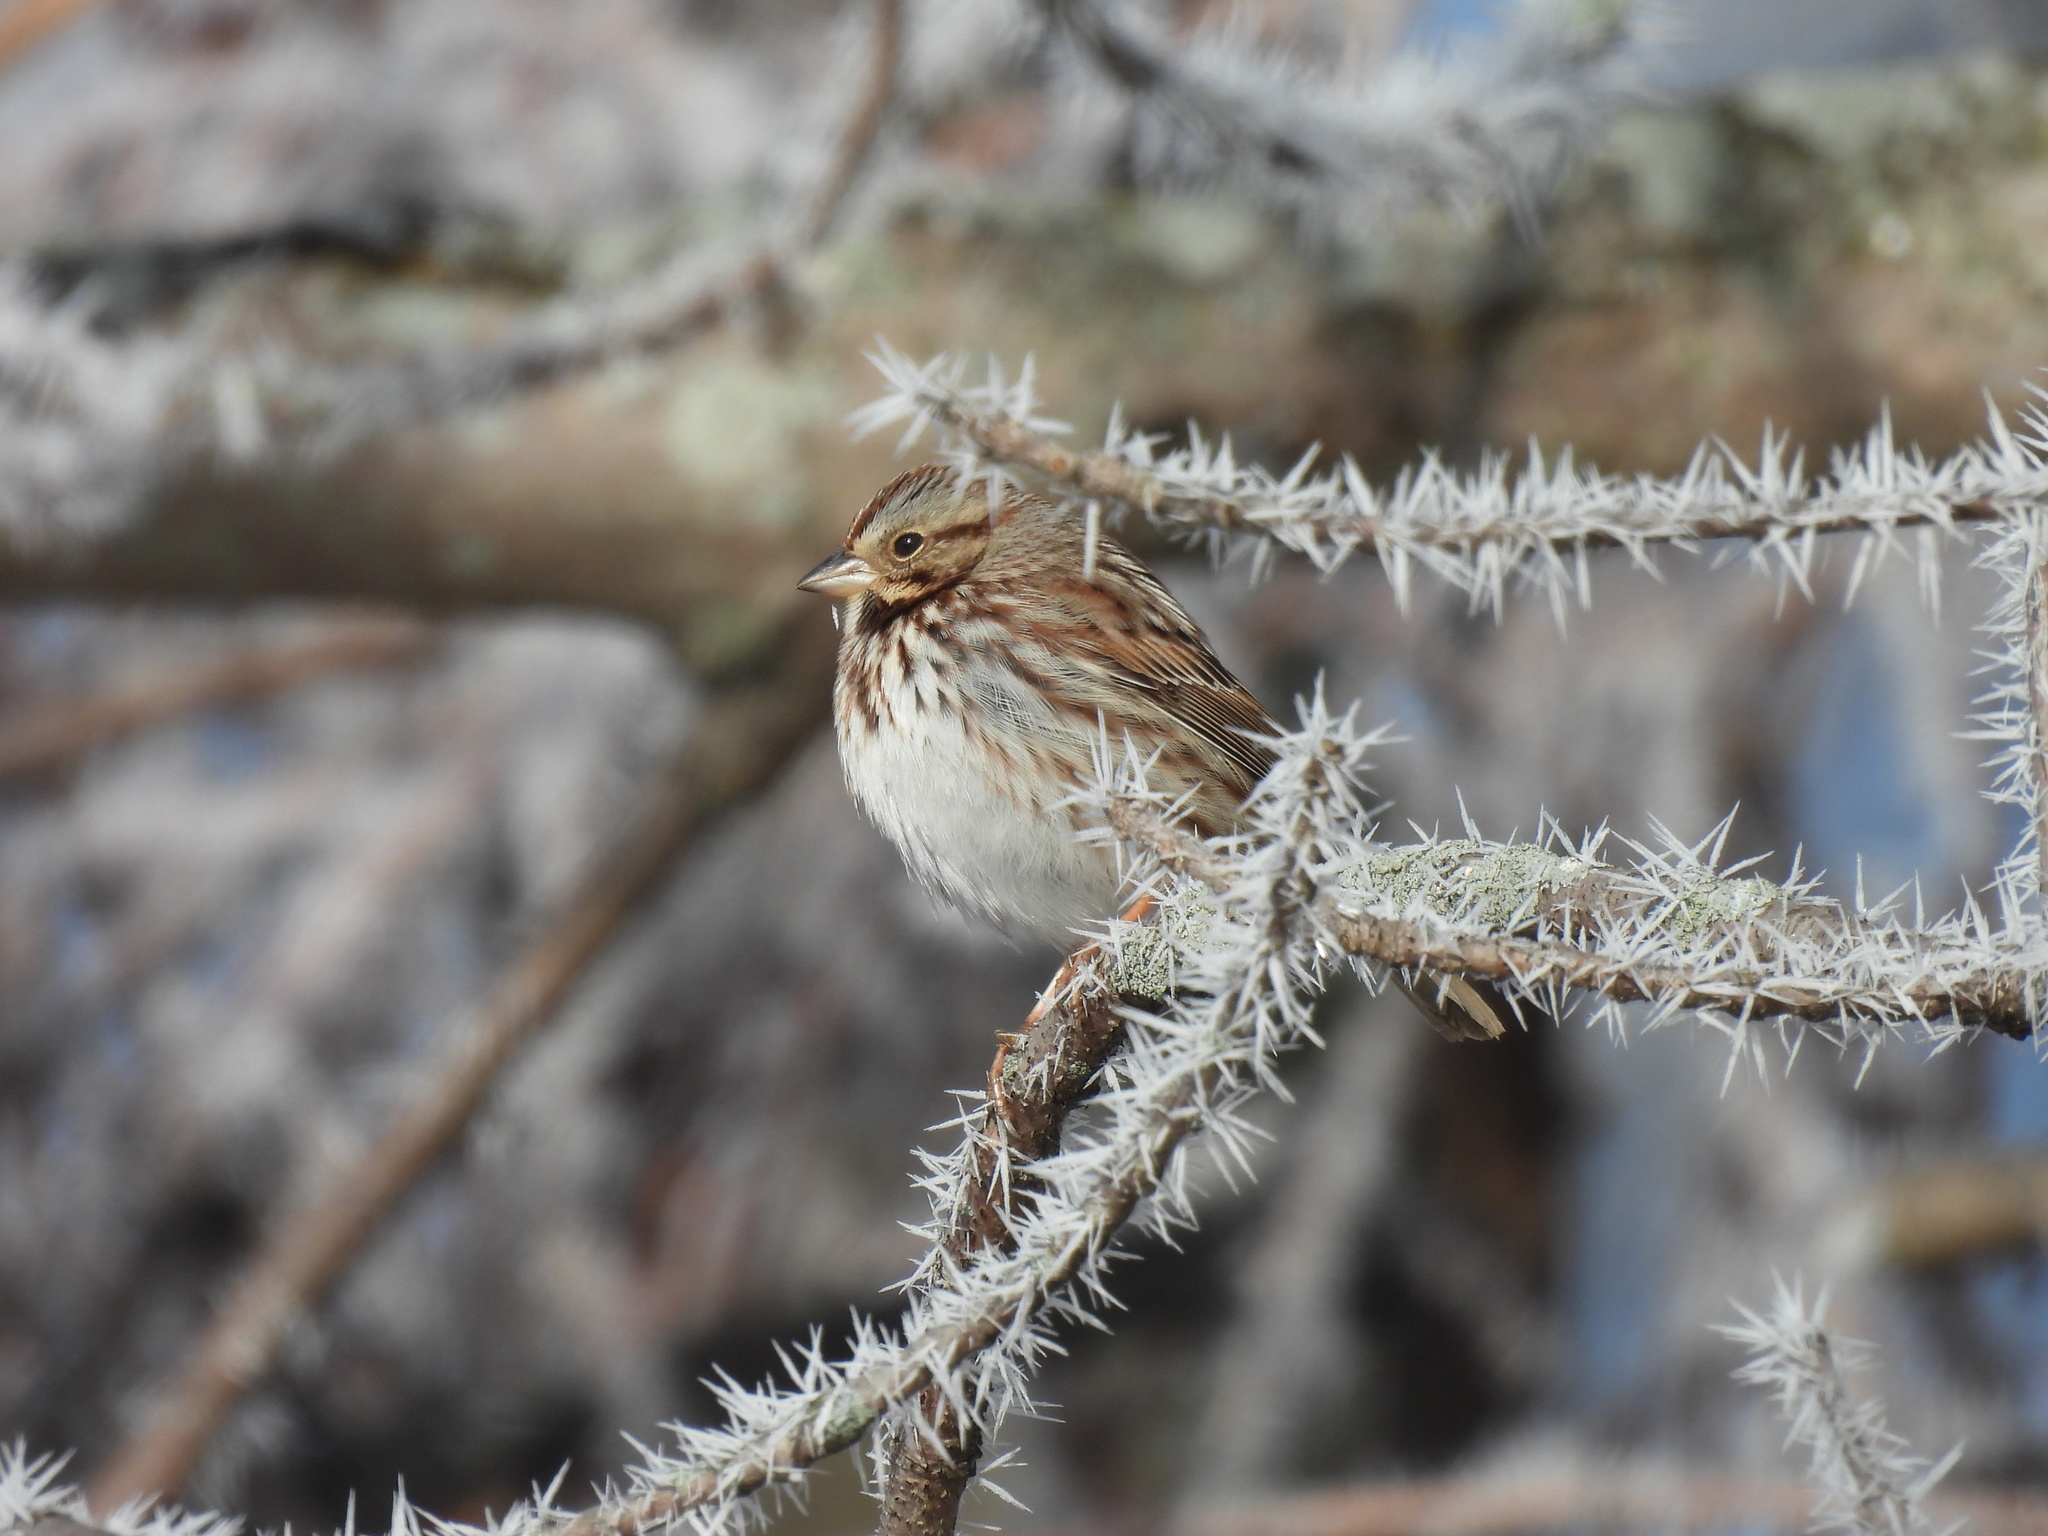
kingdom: Animalia
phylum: Chordata
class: Aves
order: Passeriformes
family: Passerellidae
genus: Melospiza
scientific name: Melospiza melodia
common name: Song sparrow
